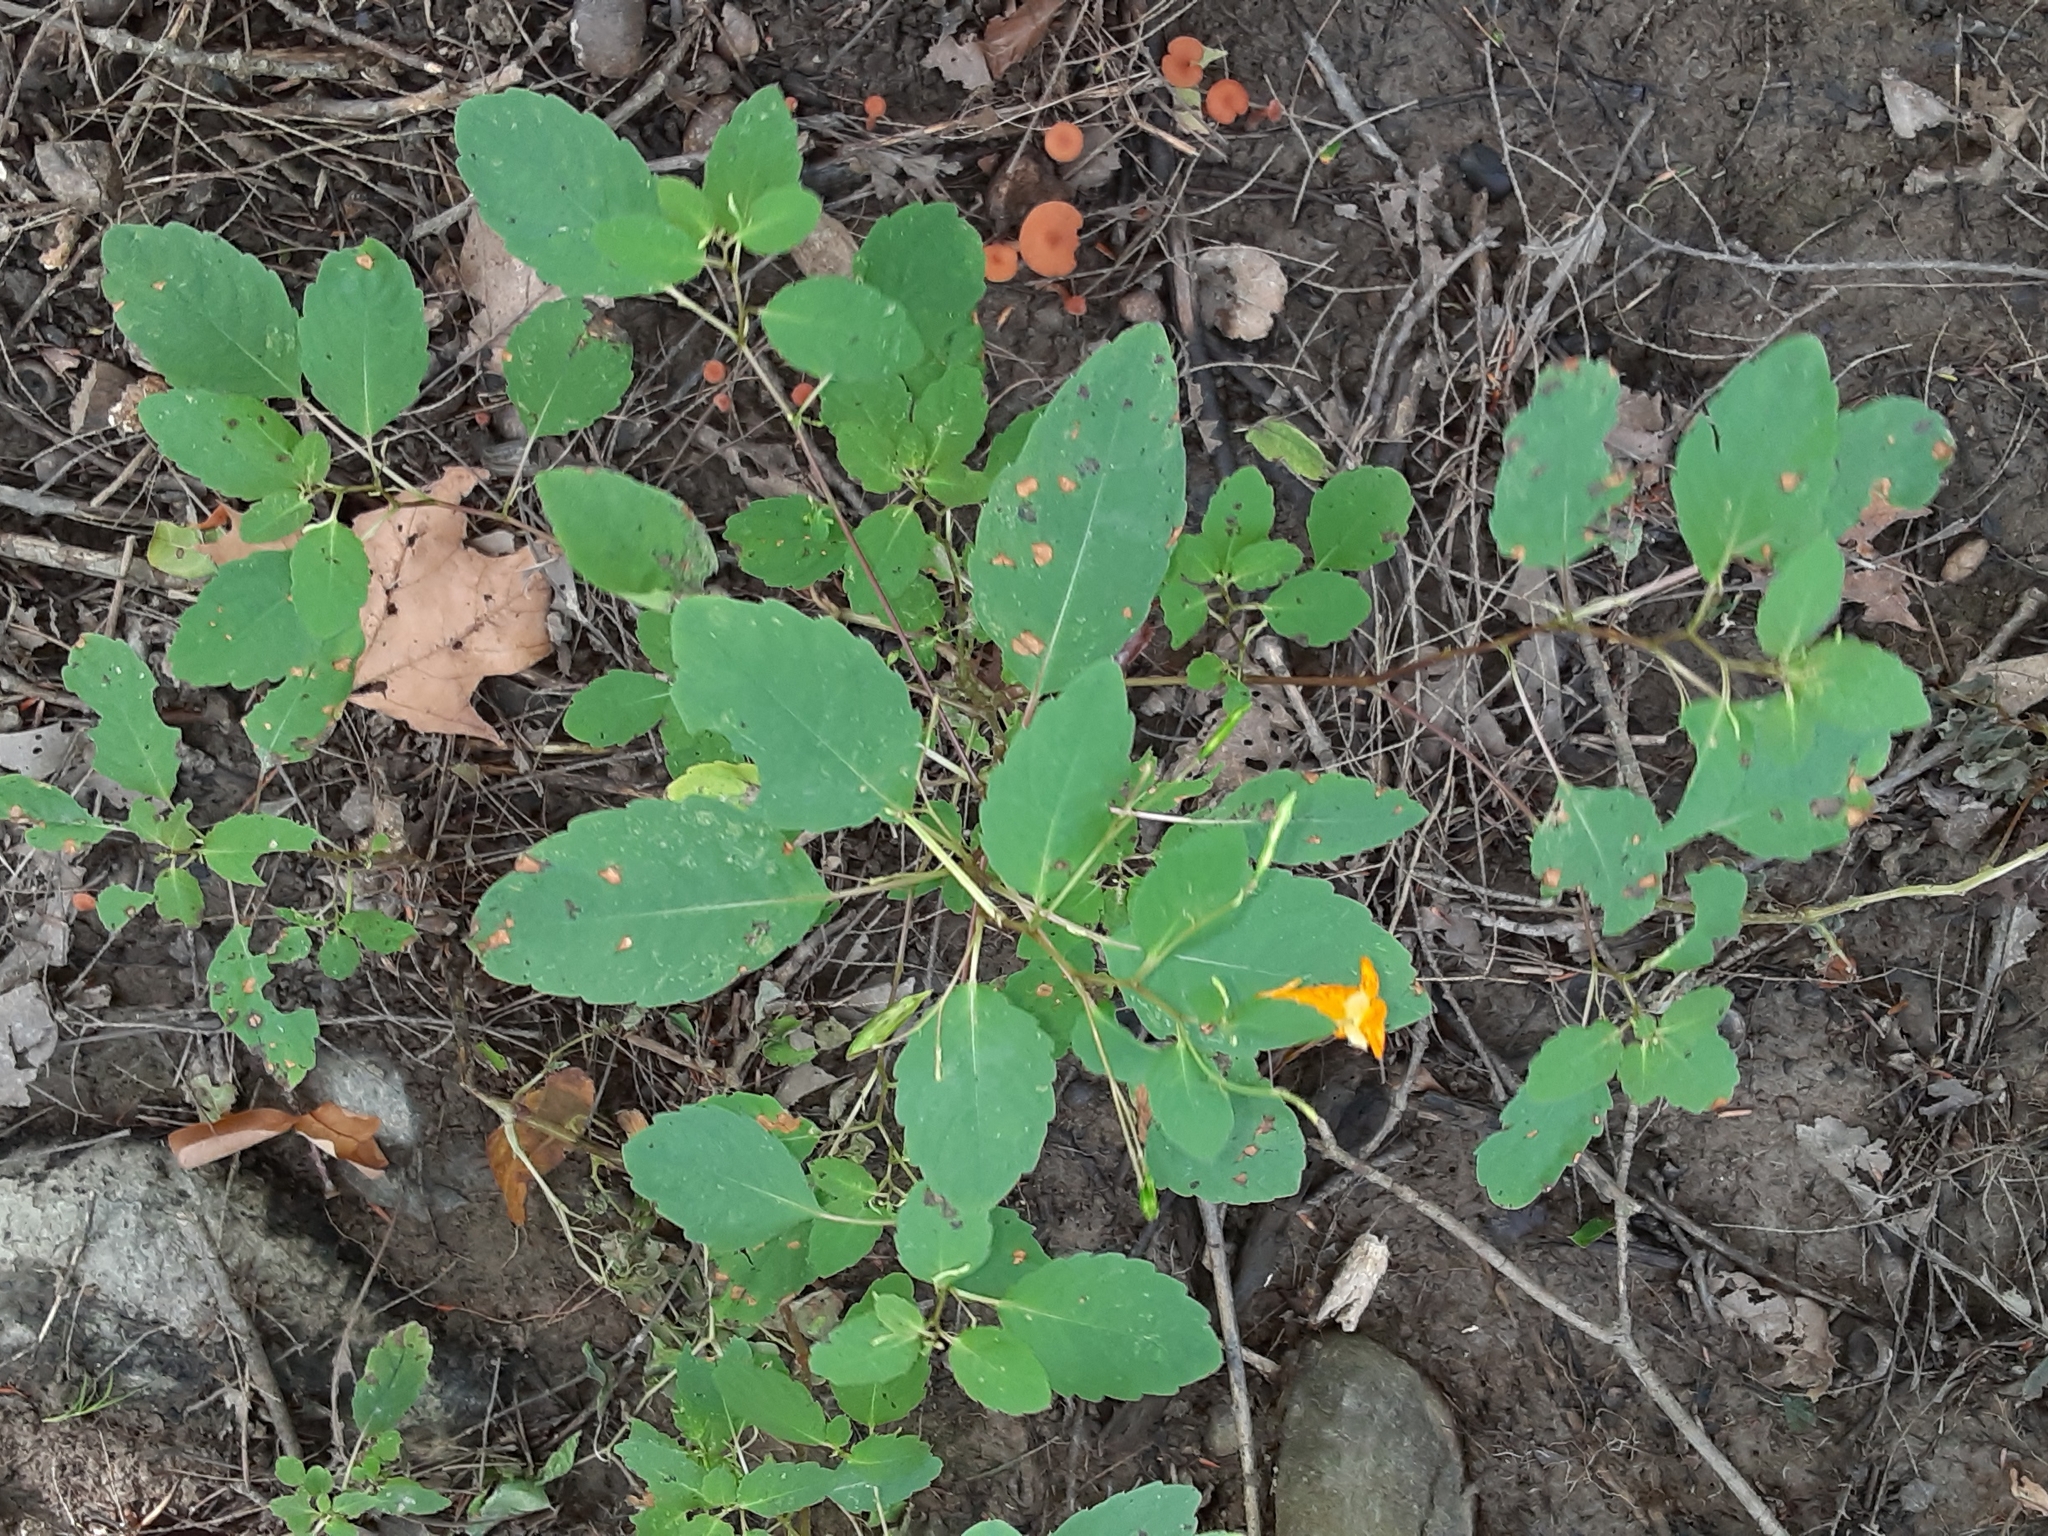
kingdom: Plantae
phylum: Tracheophyta
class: Magnoliopsida
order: Ericales
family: Balsaminaceae
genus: Impatiens
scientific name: Impatiens capensis
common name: Orange balsam
